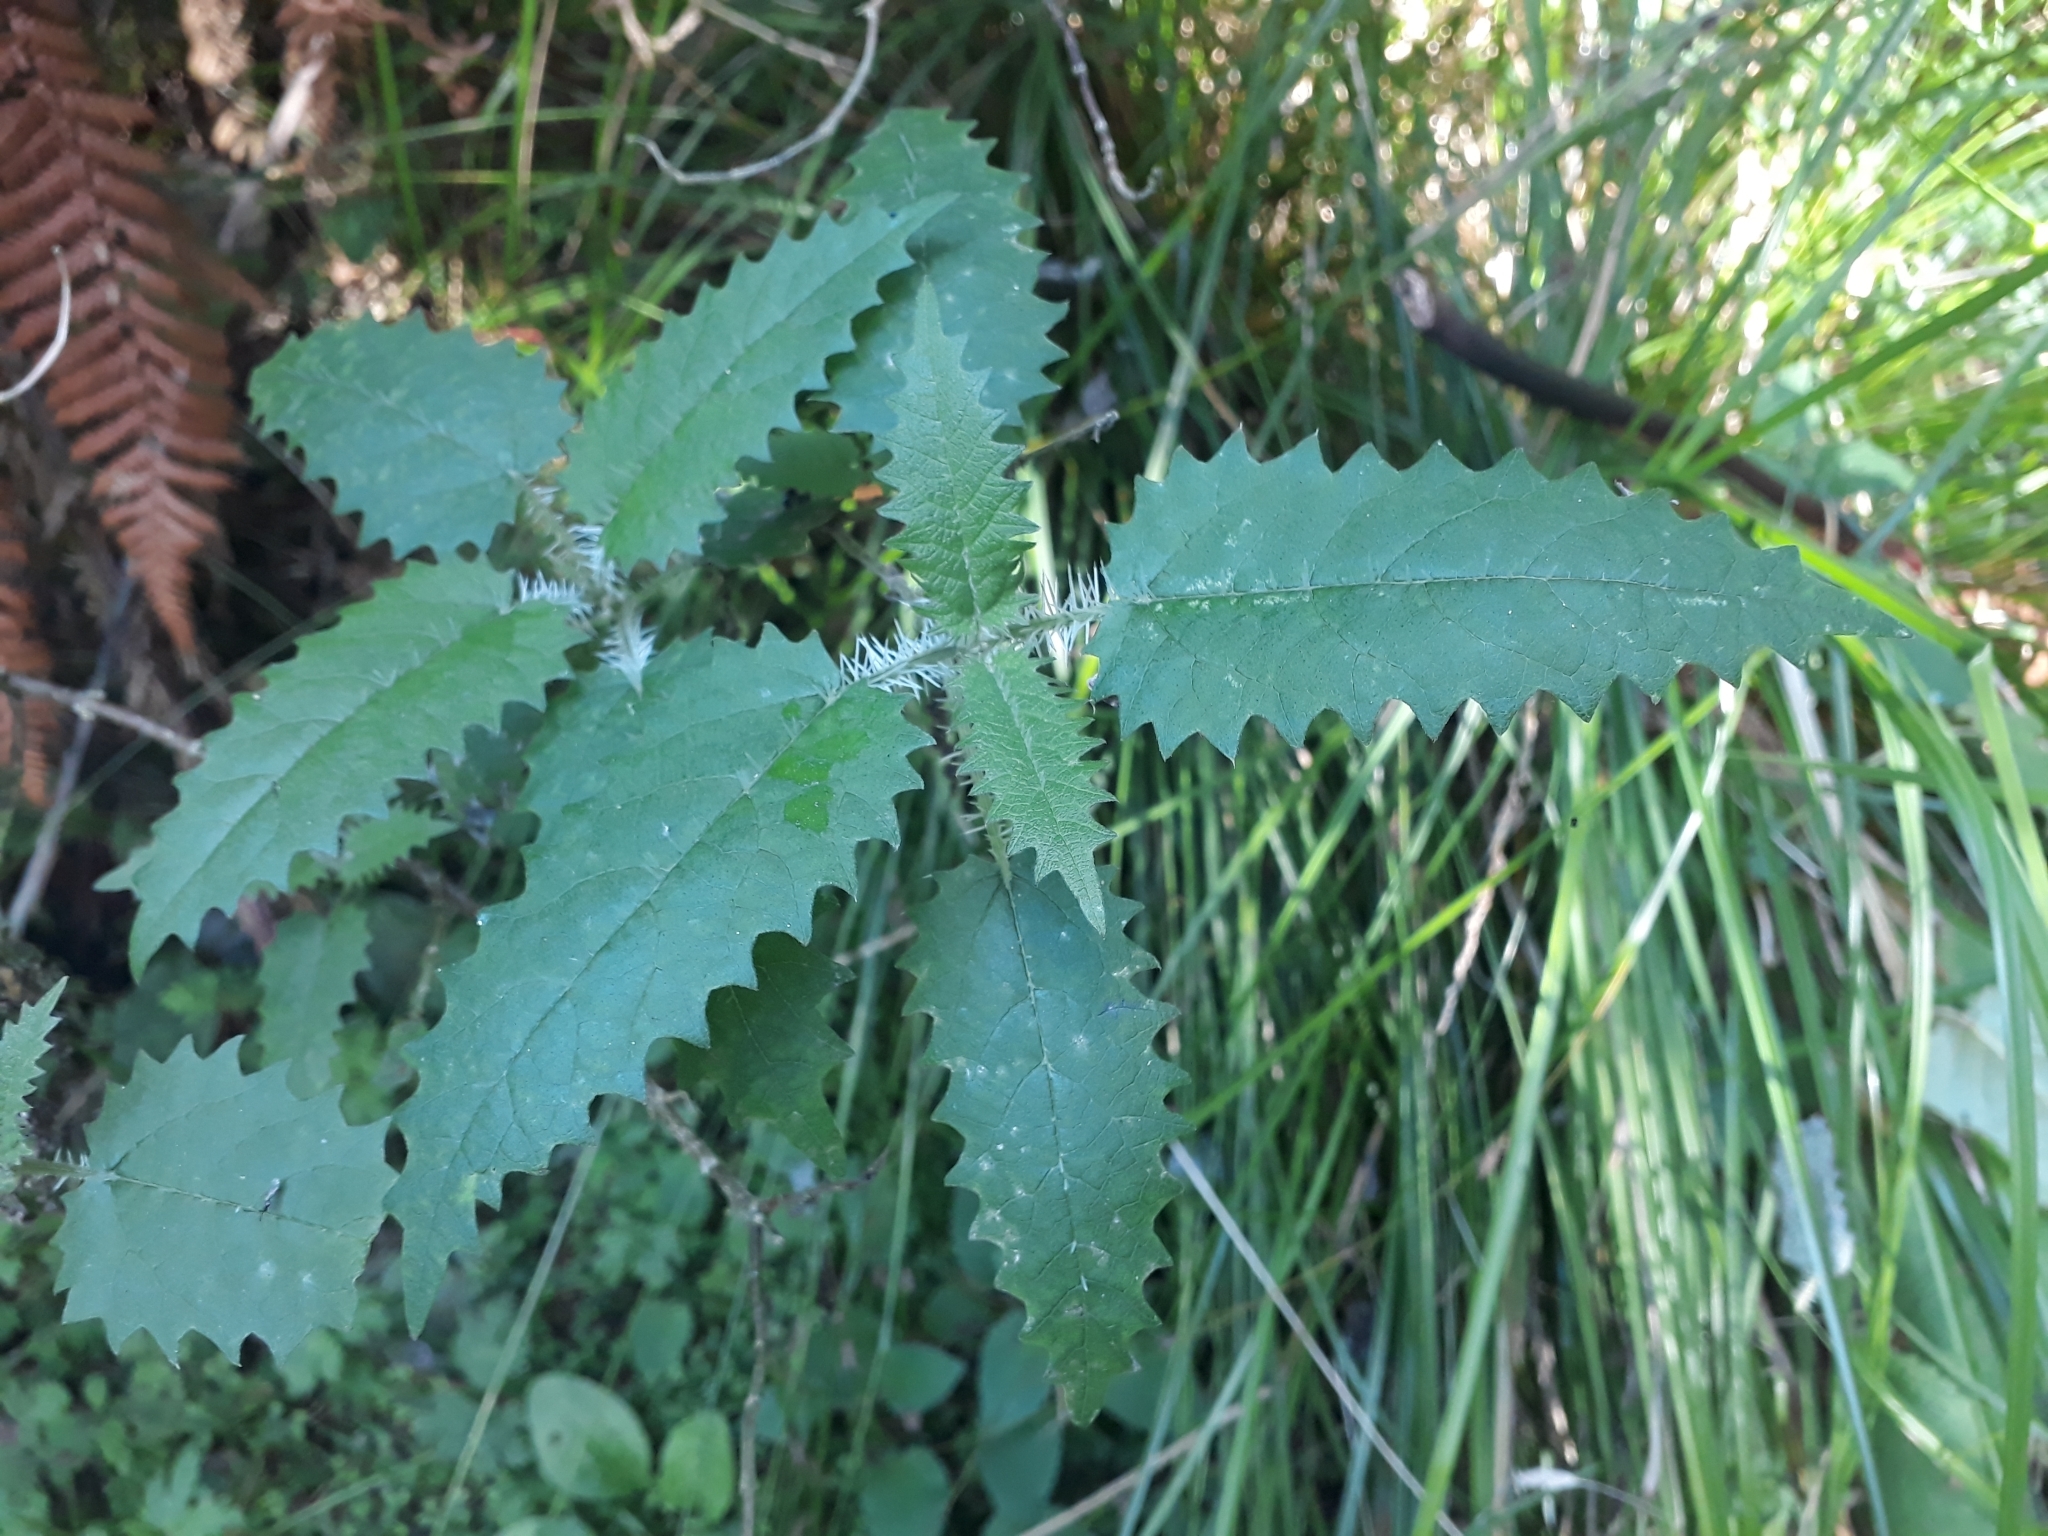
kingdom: Plantae
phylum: Tracheophyta
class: Magnoliopsida
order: Rosales
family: Urticaceae
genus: Urtica
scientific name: Urtica ferox
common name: Tree nettle
